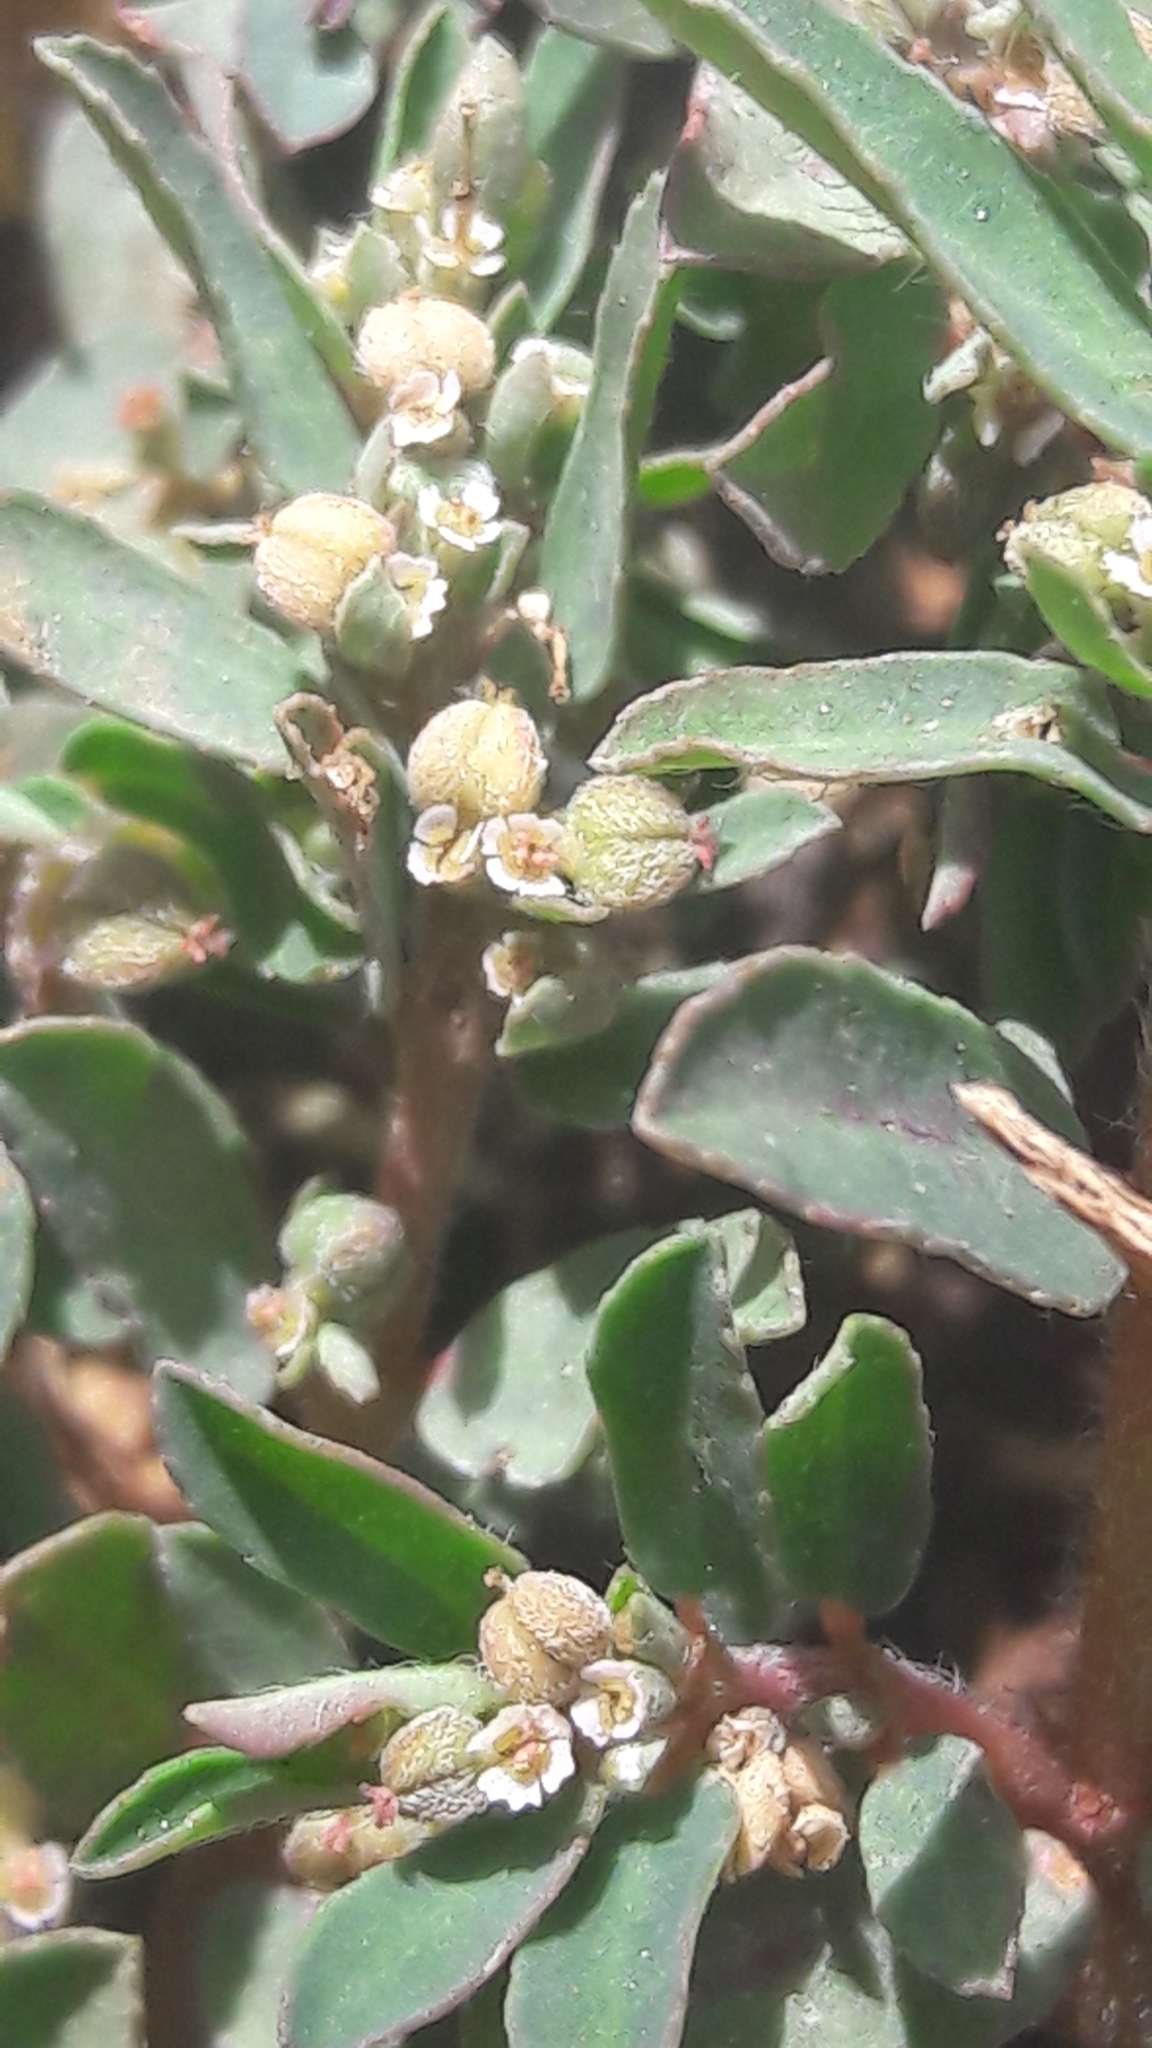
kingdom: Plantae
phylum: Tracheophyta
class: Magnoliopsida
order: Malpighiales
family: Euphorbiaceae
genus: Euphorbia
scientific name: Euphorbia maculata
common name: Spotted spurge
